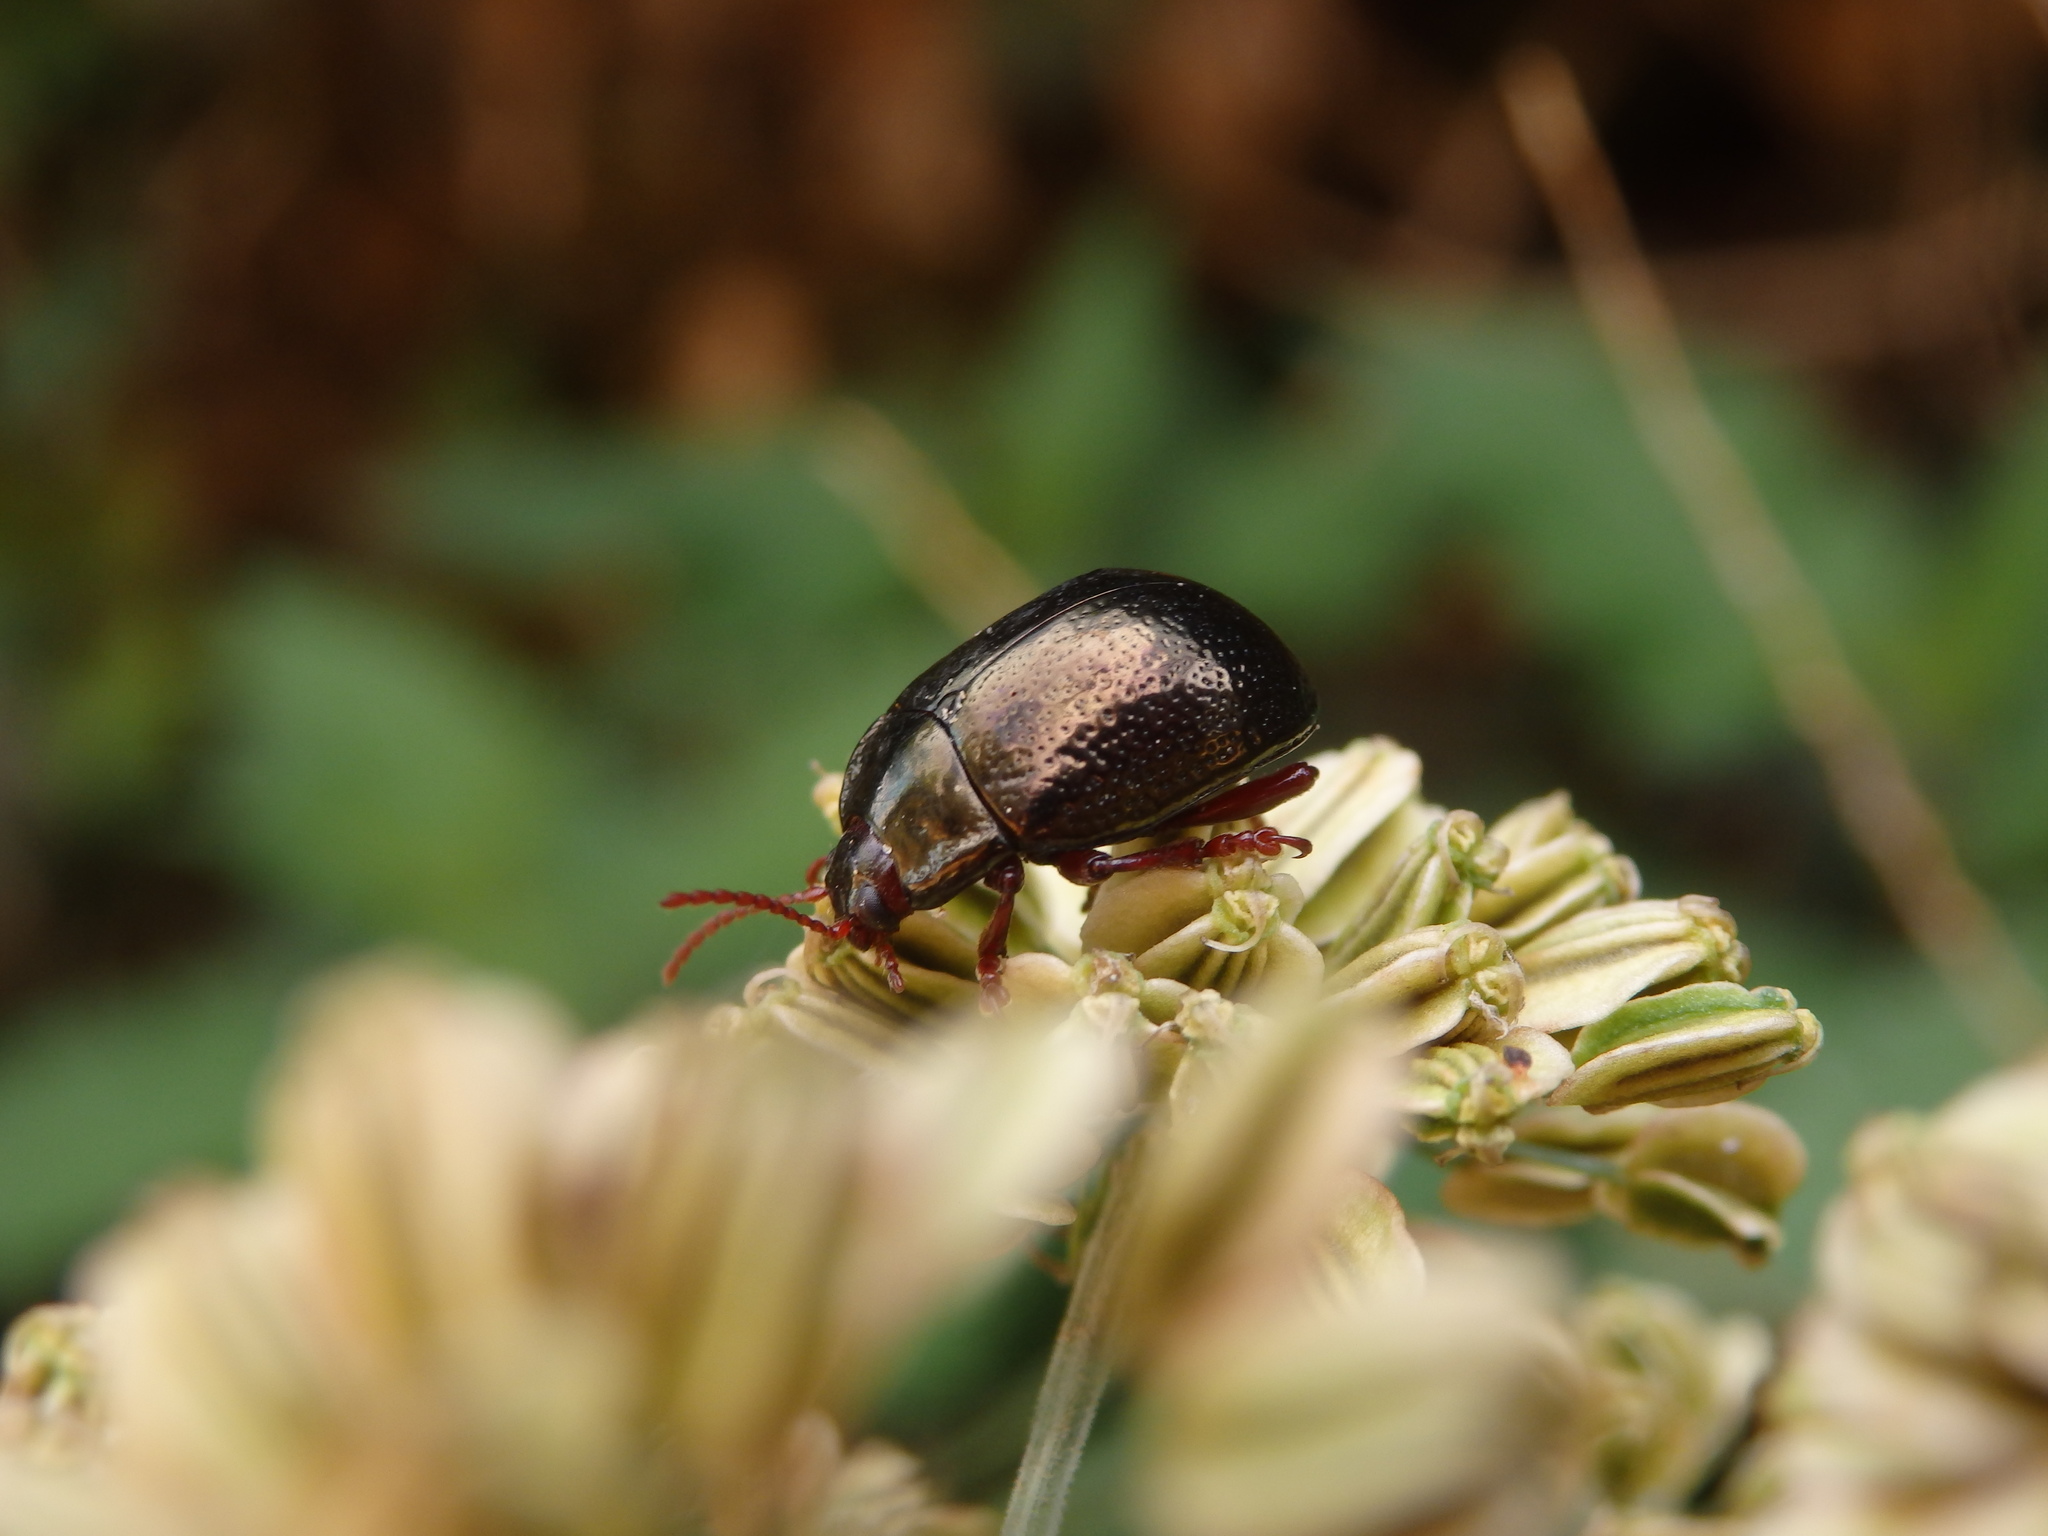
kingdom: Animalia
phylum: Arthropoda
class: Insecta
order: Coleoptera
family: Chrysomelidae
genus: Chrysolina
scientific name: Chrysolina bankii
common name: Leaf beetle
